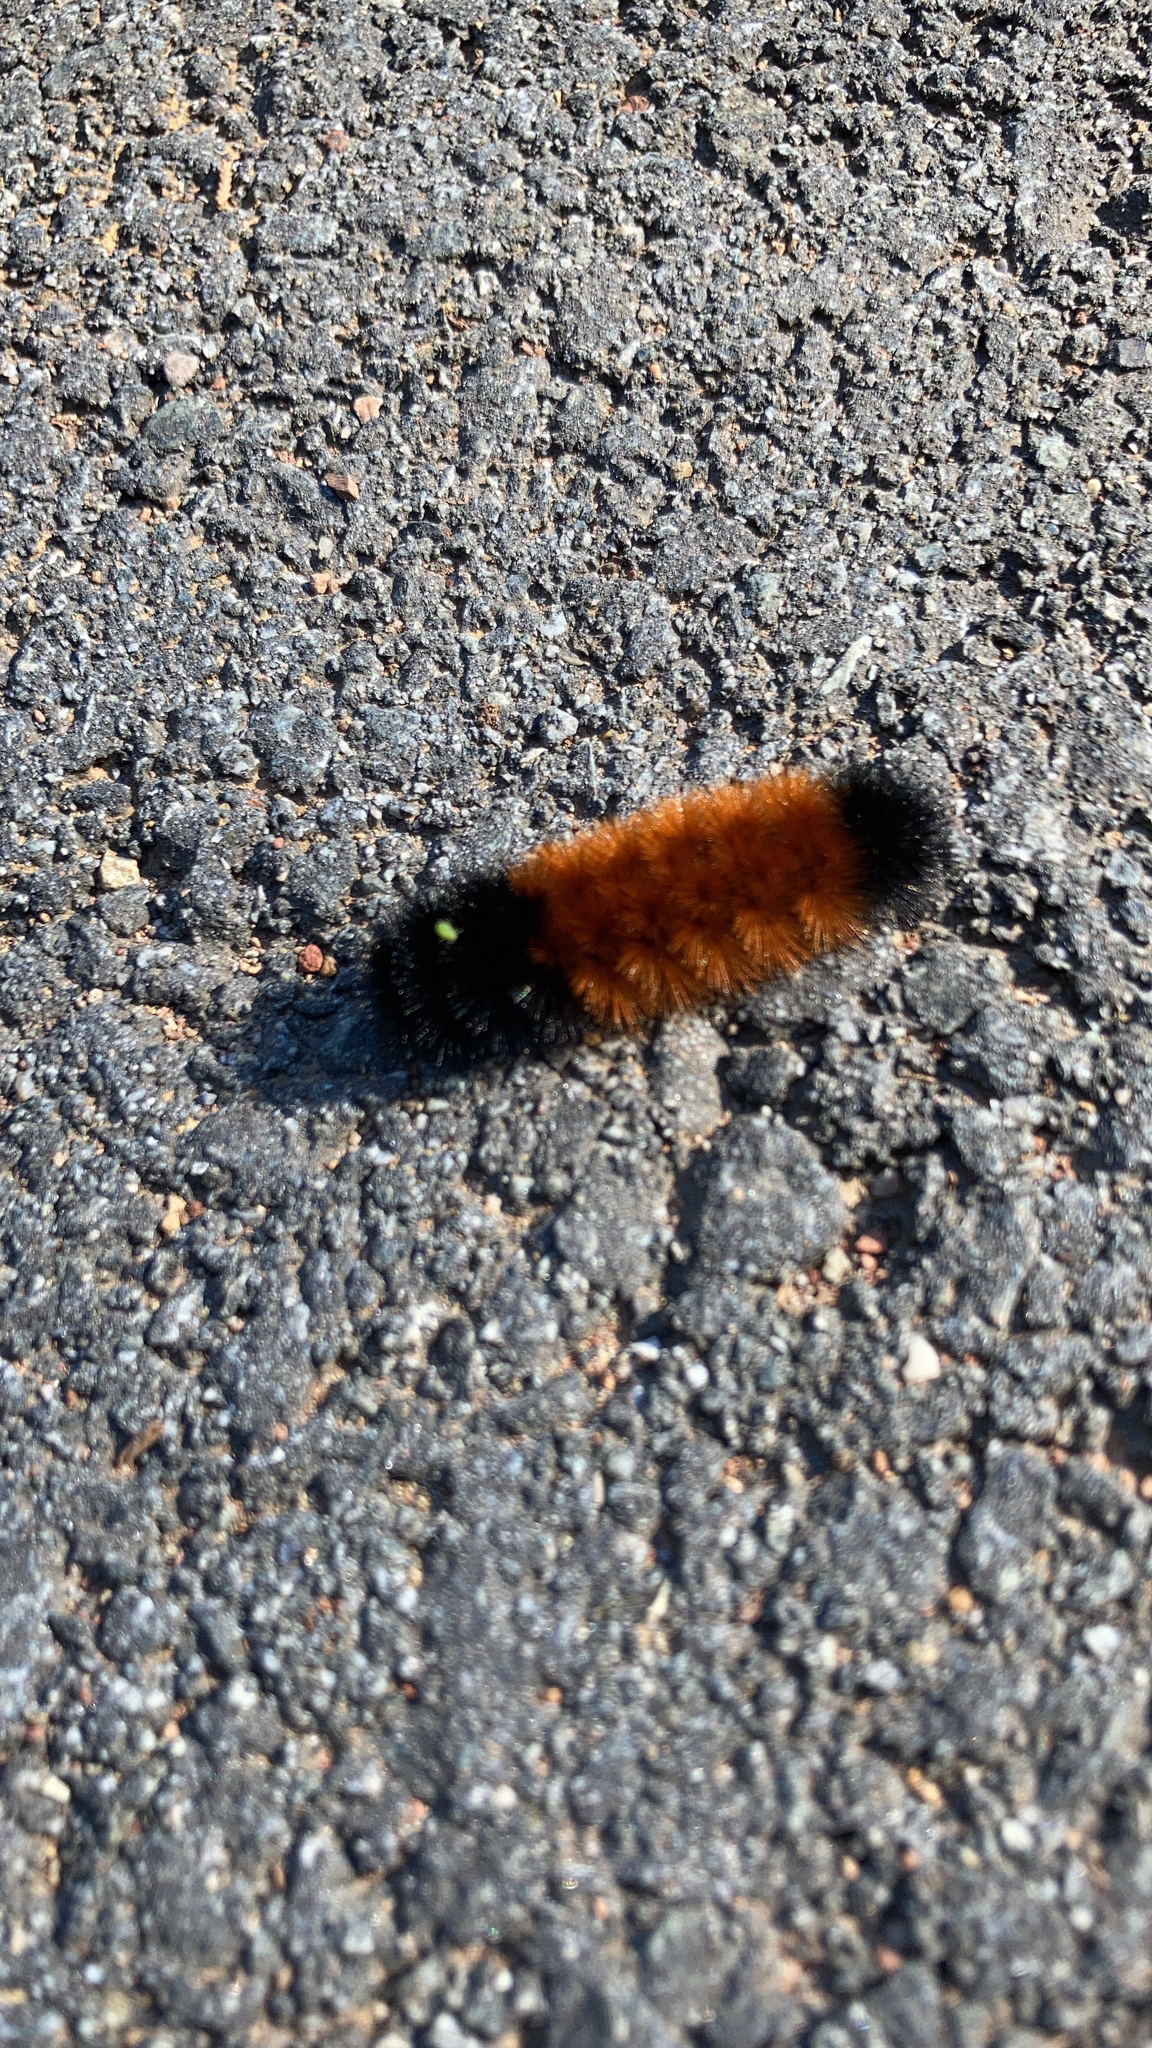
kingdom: Animalia
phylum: Arthropoda
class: Insecta
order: Lepidoptera
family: Erebidae
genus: Pyrrharctia
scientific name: Pyrrharctia isabella
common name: Isabella tiger moth
